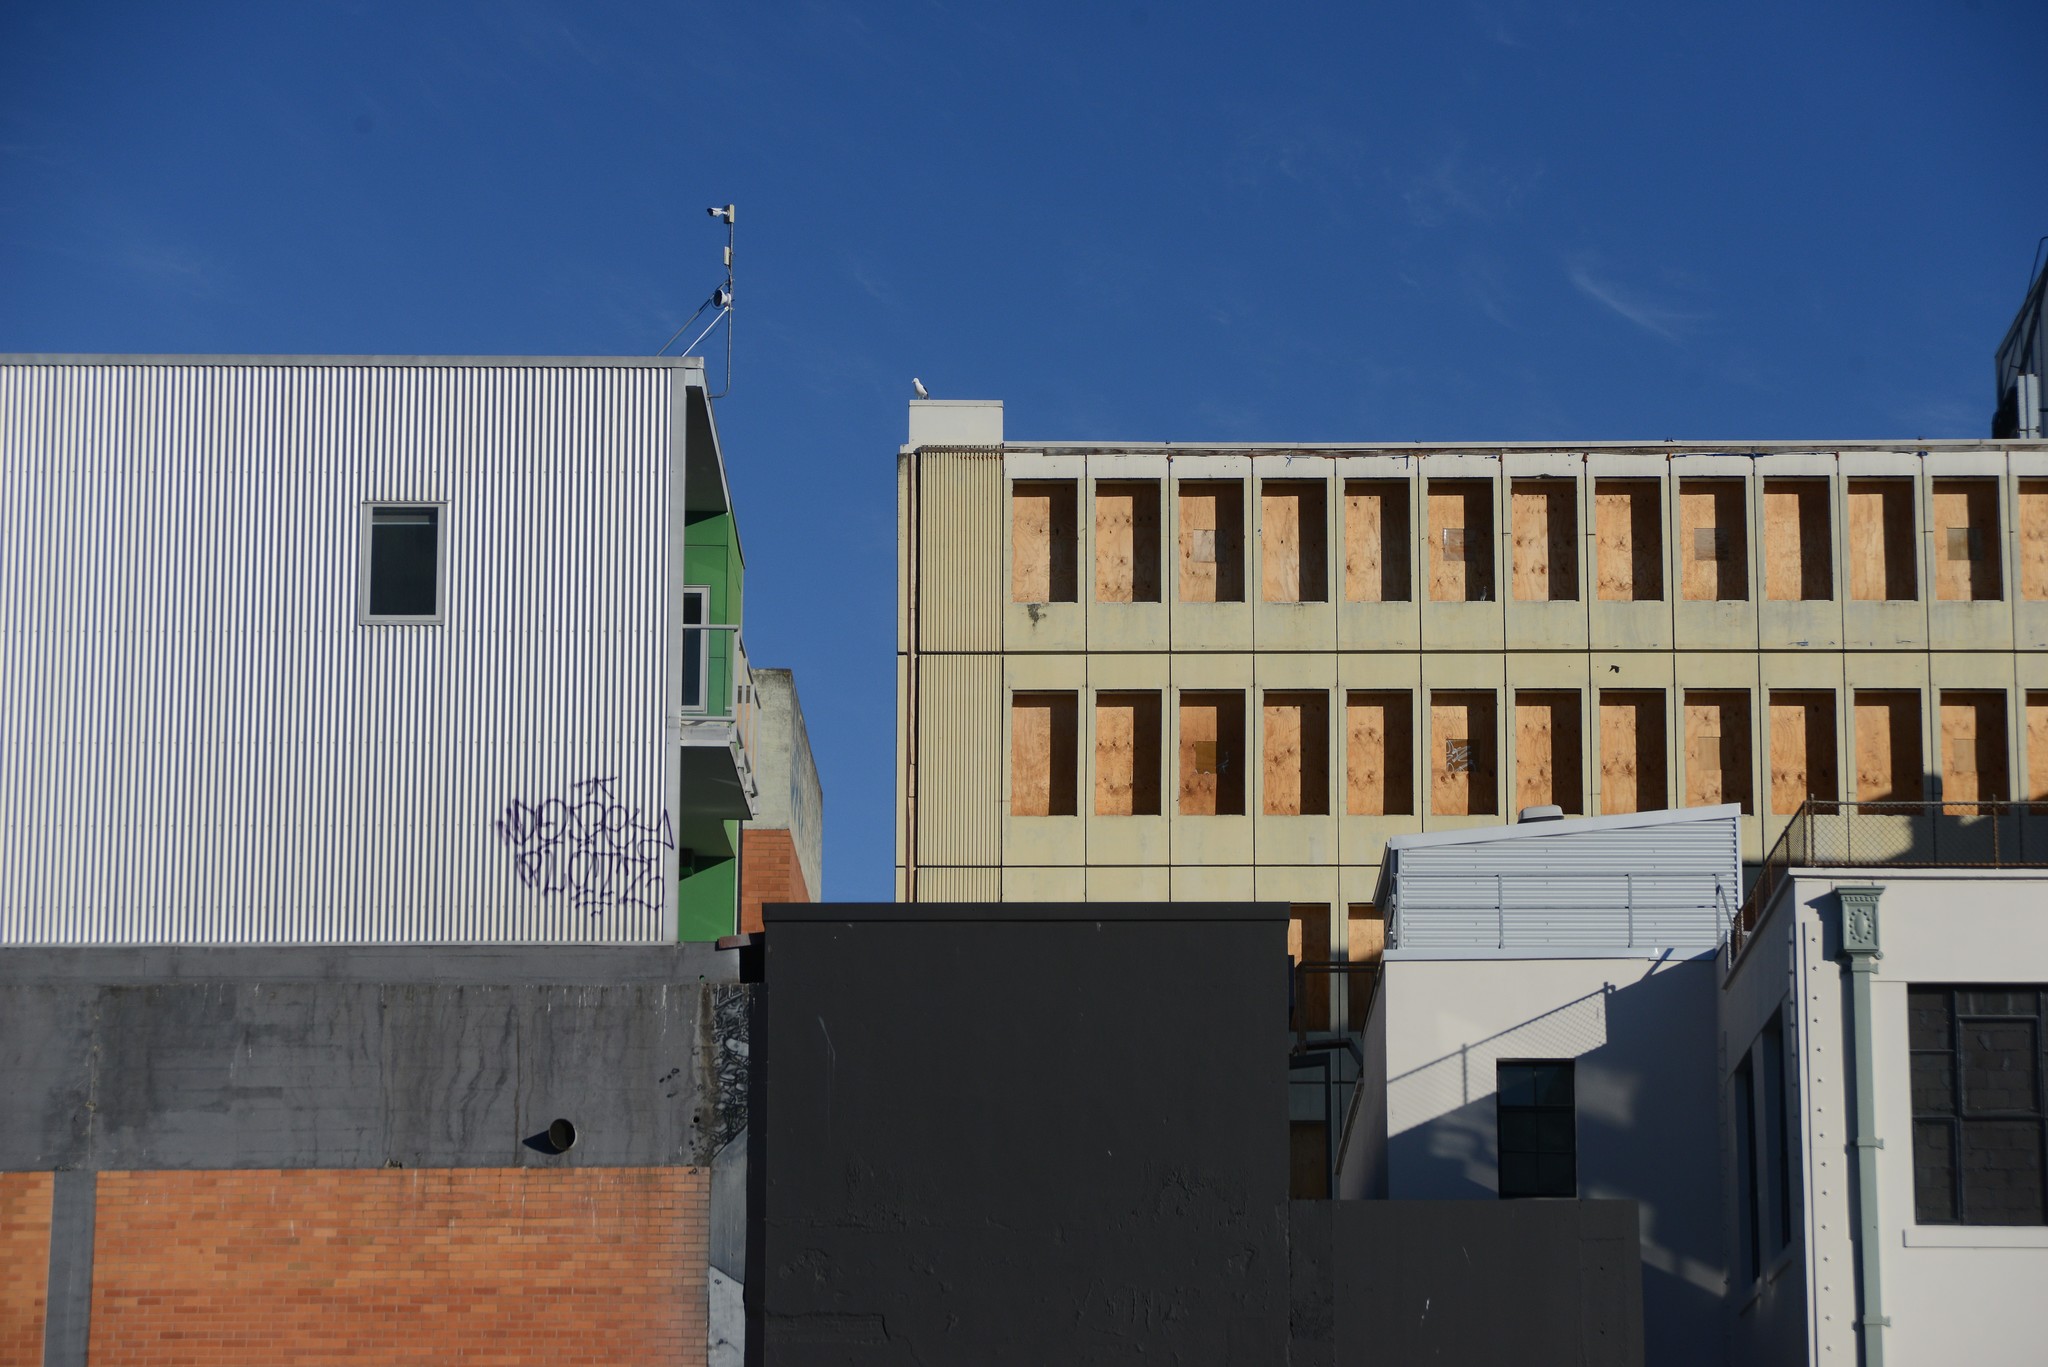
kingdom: Animalia
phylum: Chordata
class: Aves
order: Charadriiformes
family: Laridae
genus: Larus
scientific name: Larus dominicanus
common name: Kelp gull
